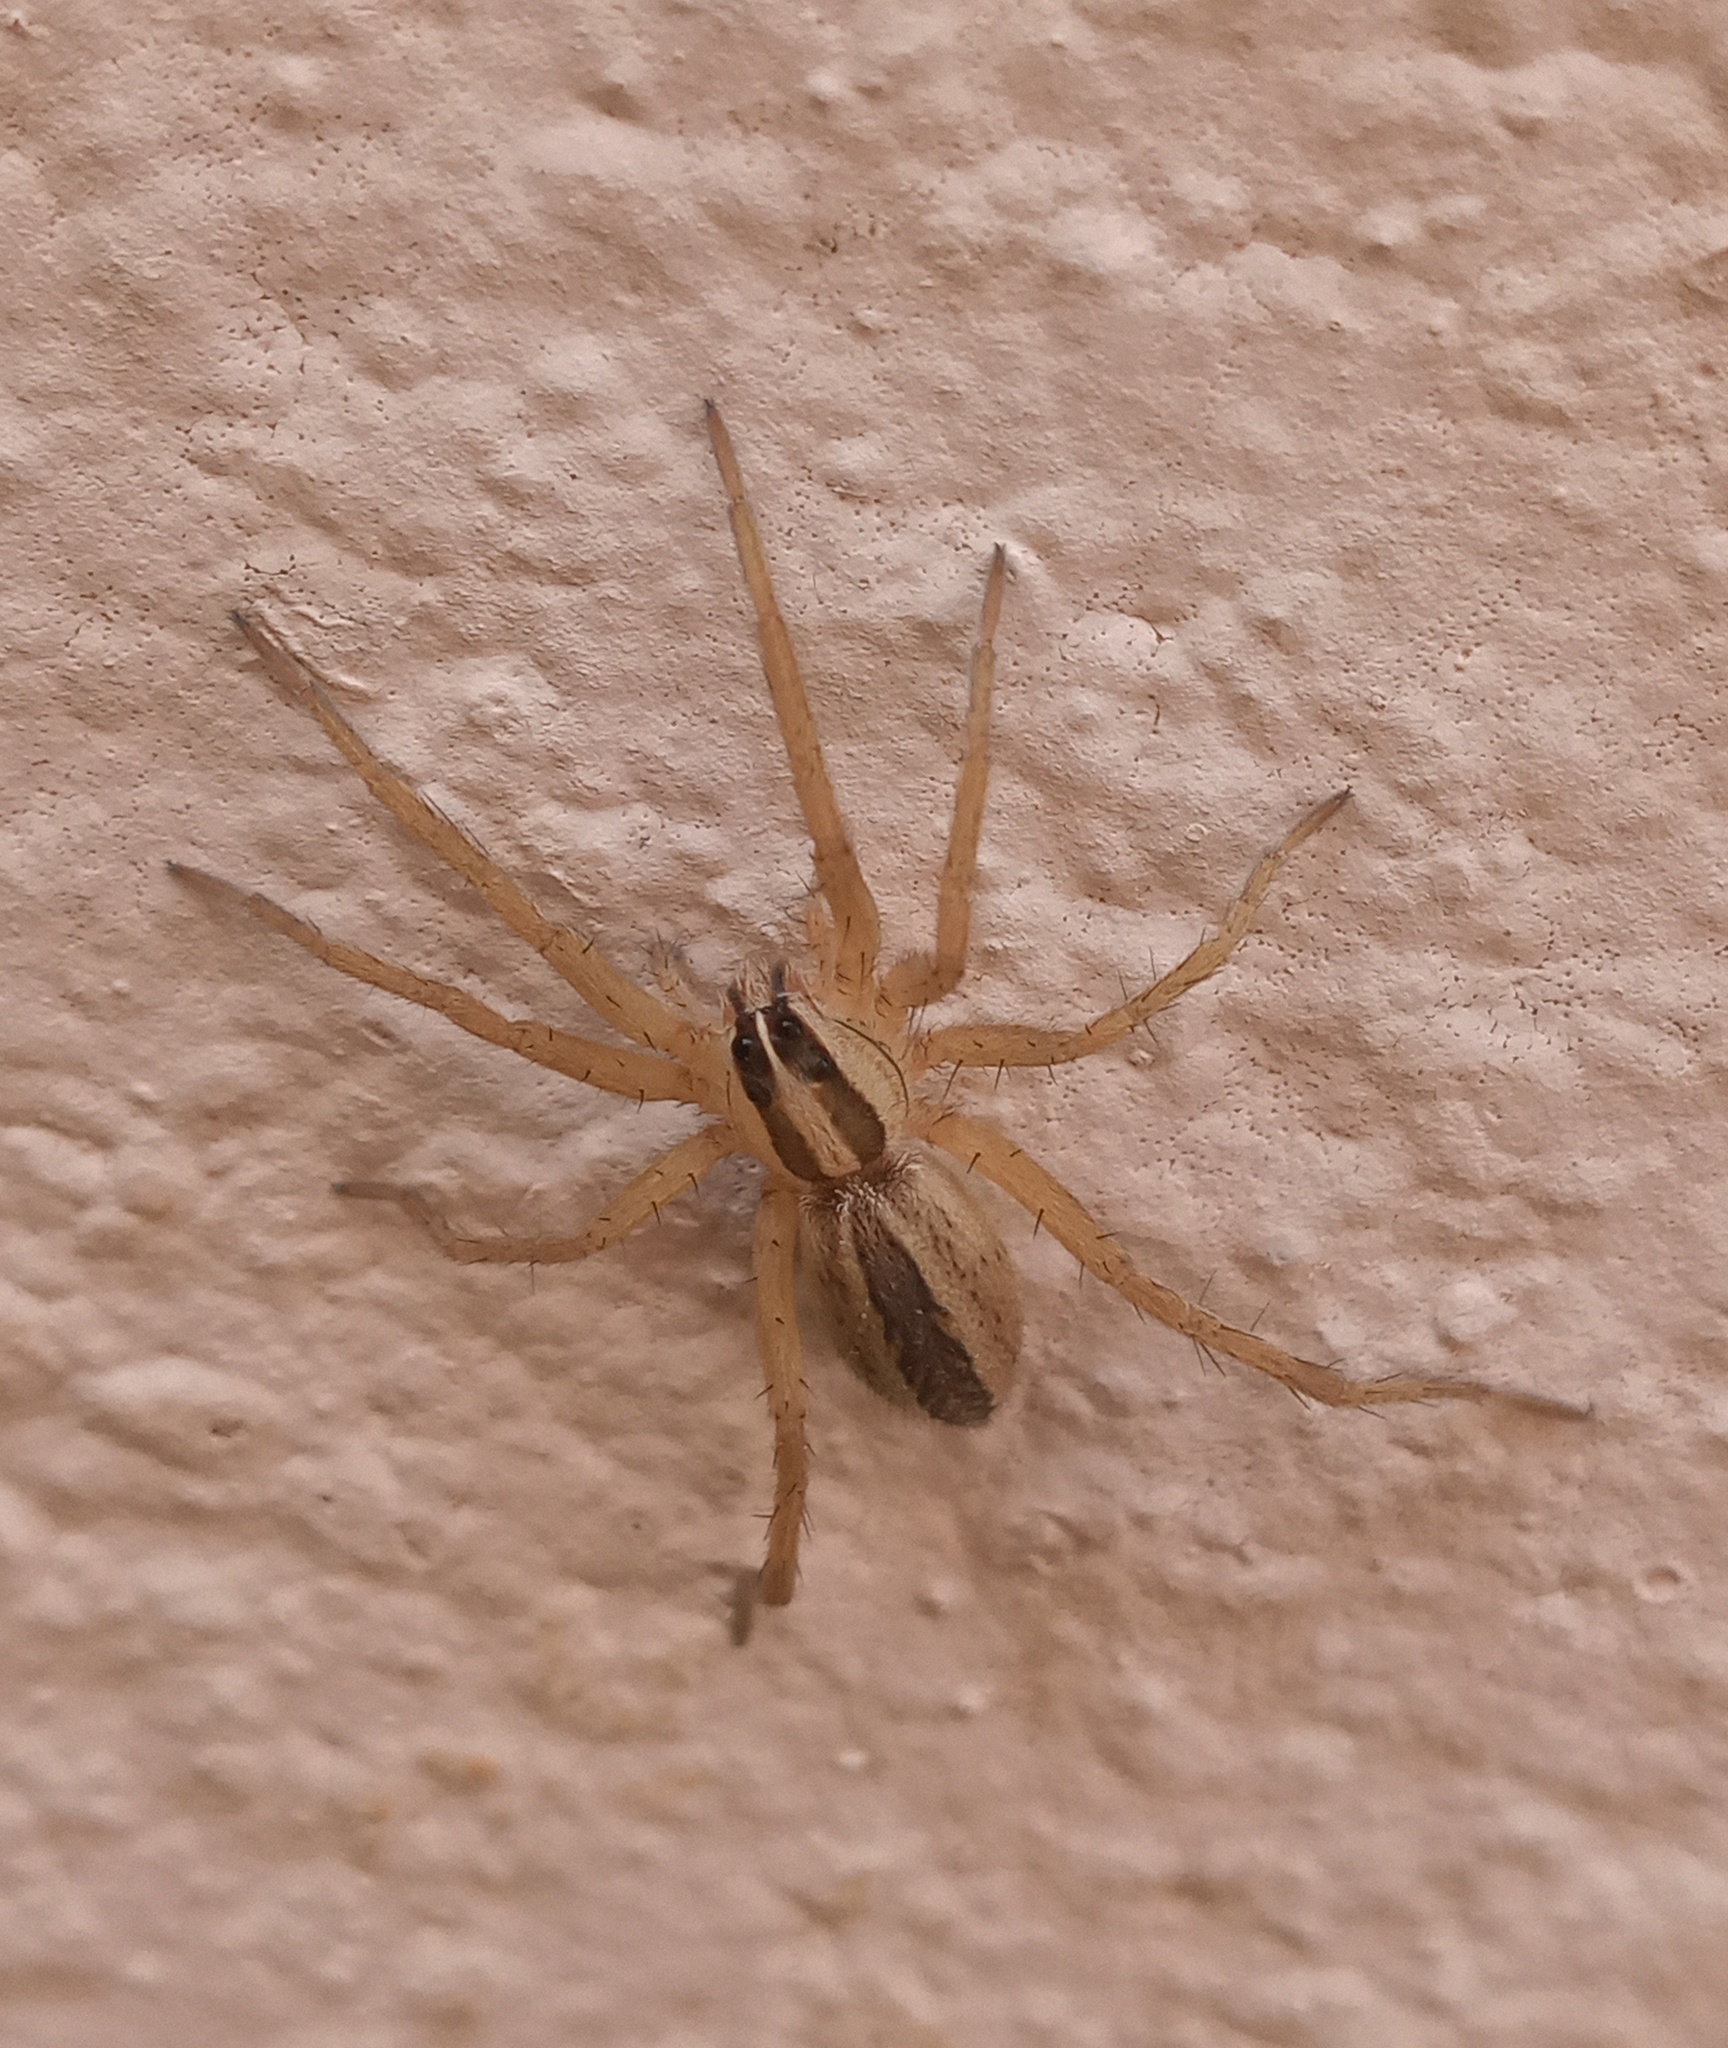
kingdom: Animalia
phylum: Arthropoda
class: Arachnida
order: Araneae
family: Lycosidae
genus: Rabidosa
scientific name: Rabidosa rabida
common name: Rabid wolf spider
